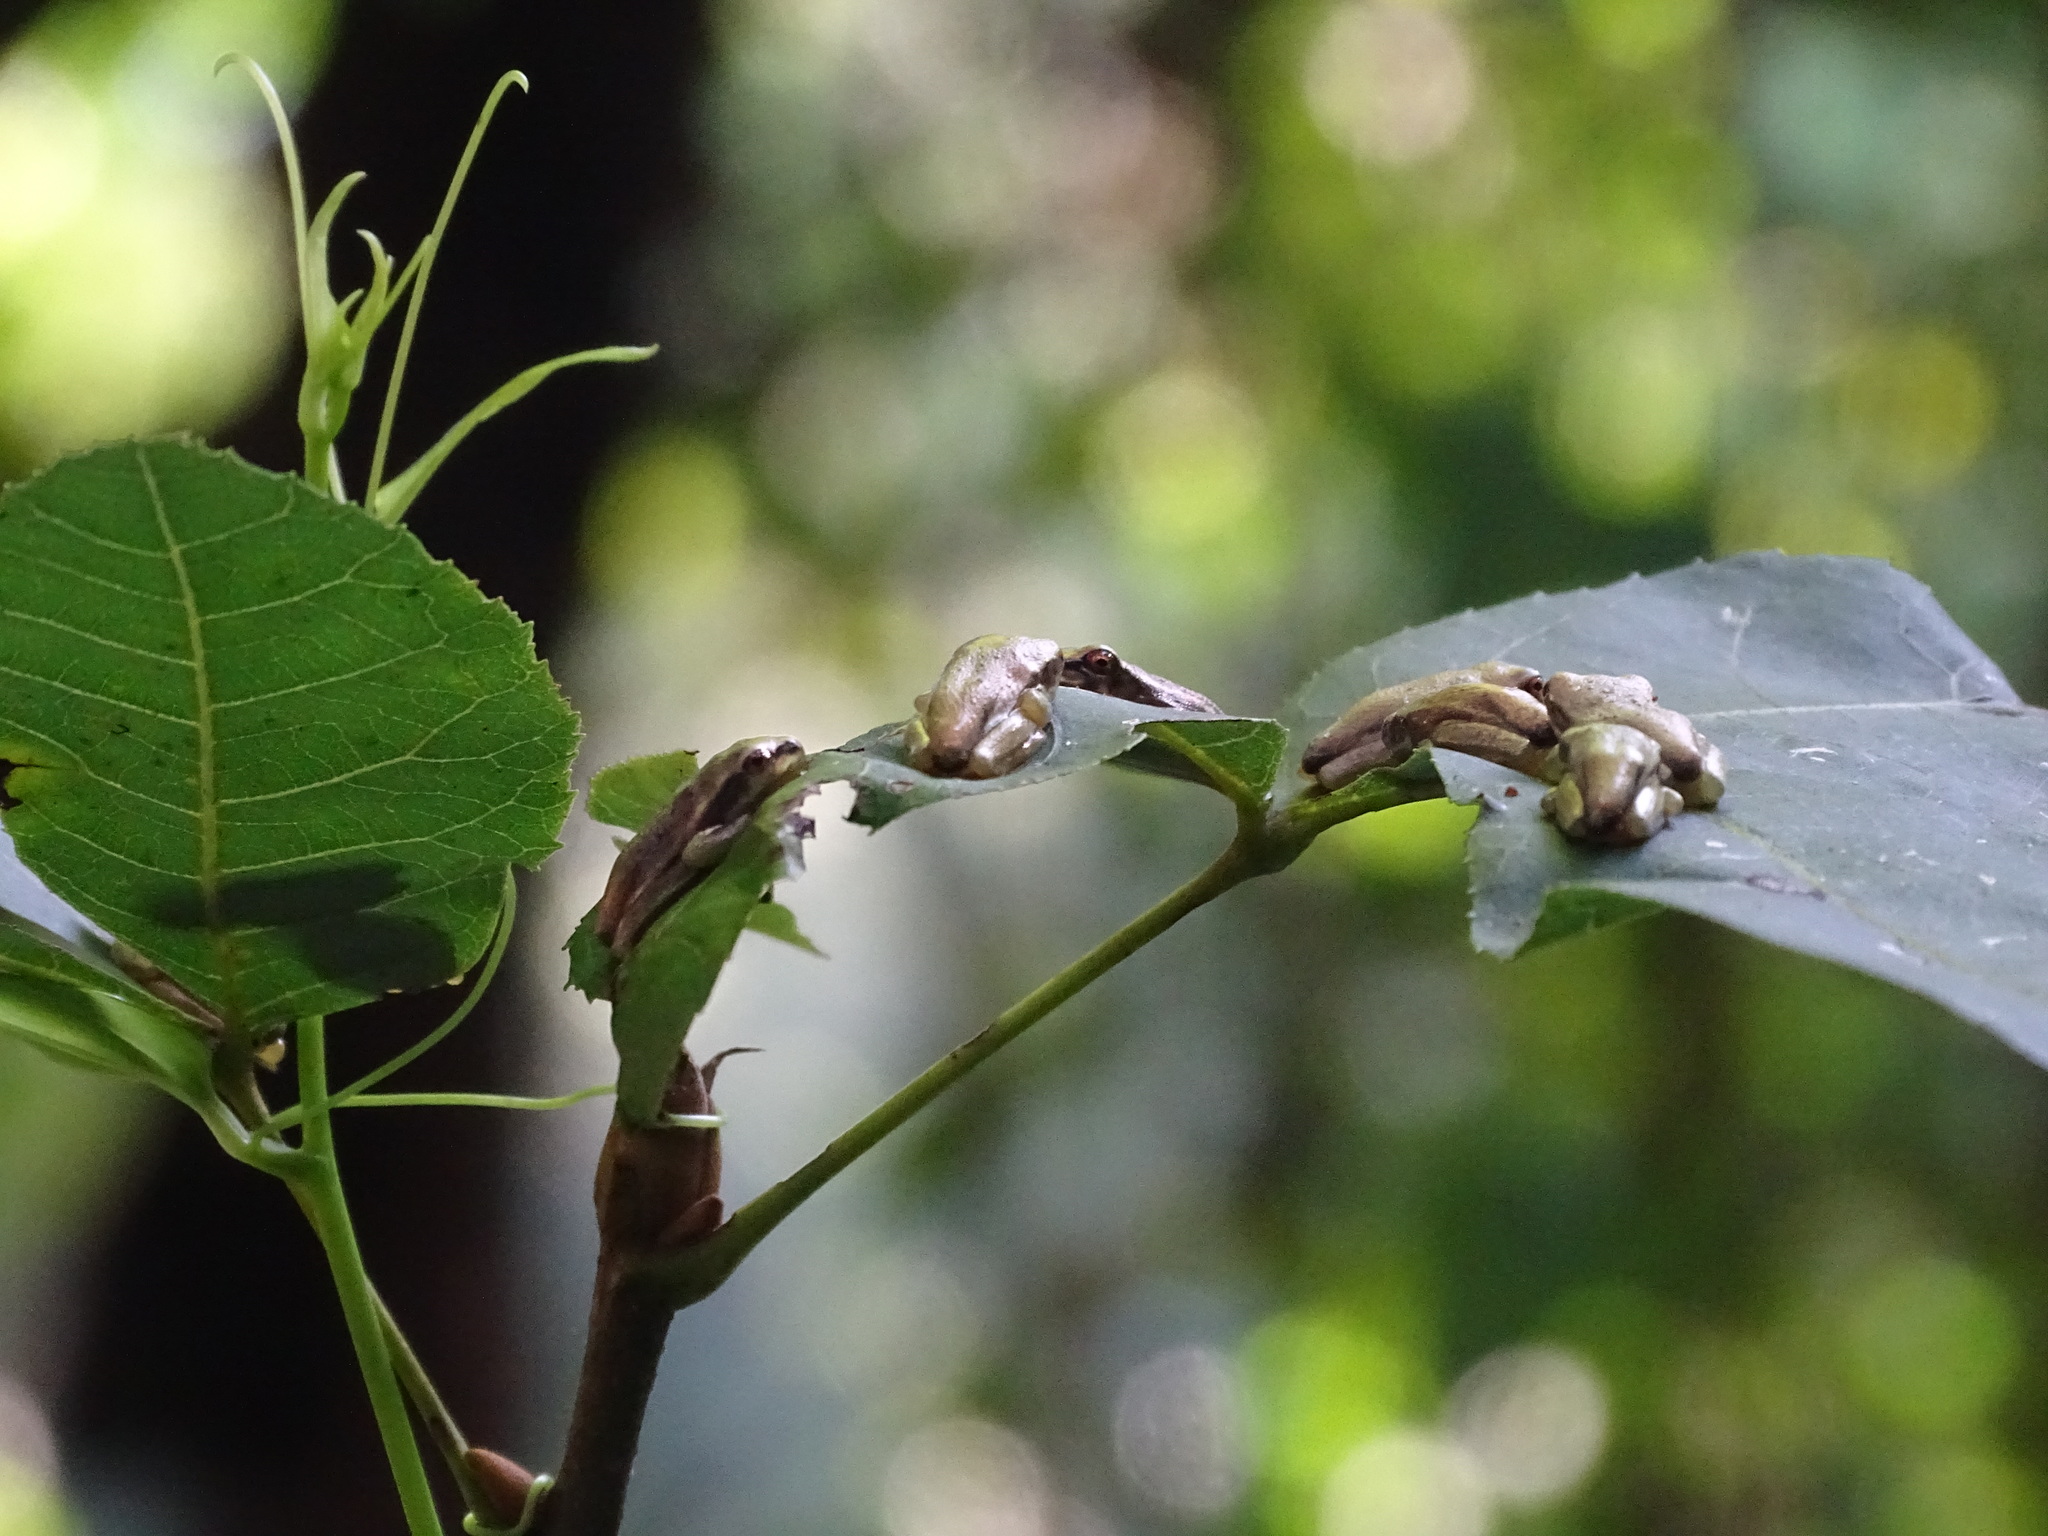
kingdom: Animalia
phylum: Chordata
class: Amphibia
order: Anura
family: Hylidae
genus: Osteopilus
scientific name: Osteopilus septentrionalis
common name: Cuban treefrog
